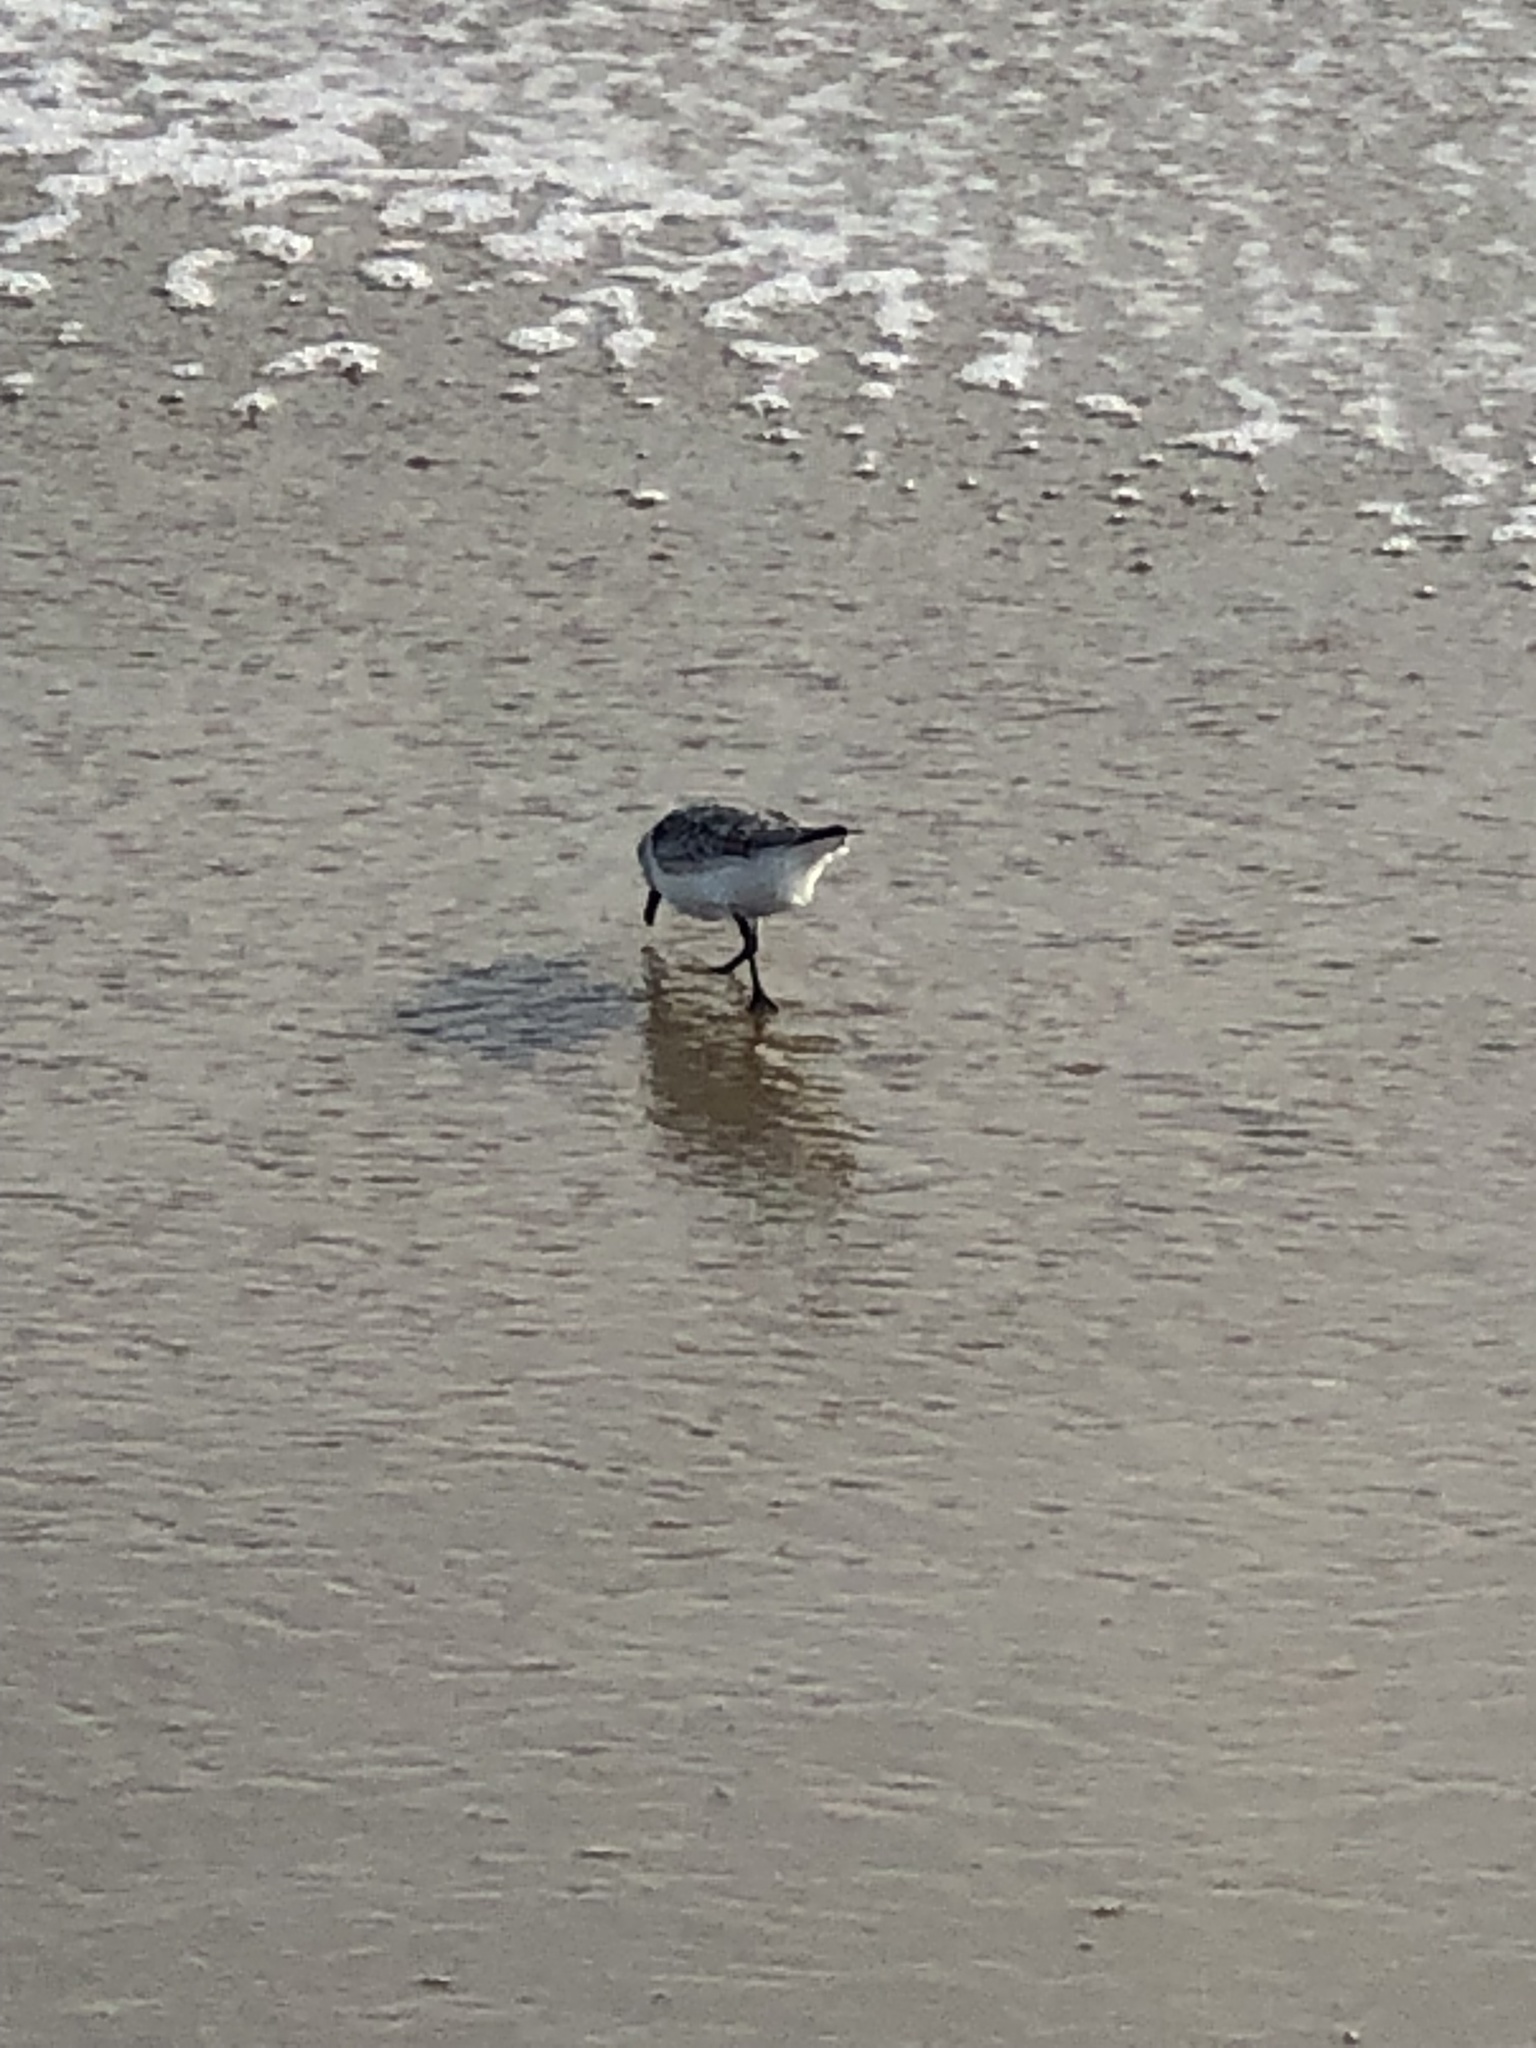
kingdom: Animalia
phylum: Chordata
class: Aves
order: Charadriiformes
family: Scolopacidae
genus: Calidris
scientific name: Calidris alba
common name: Sanderling
